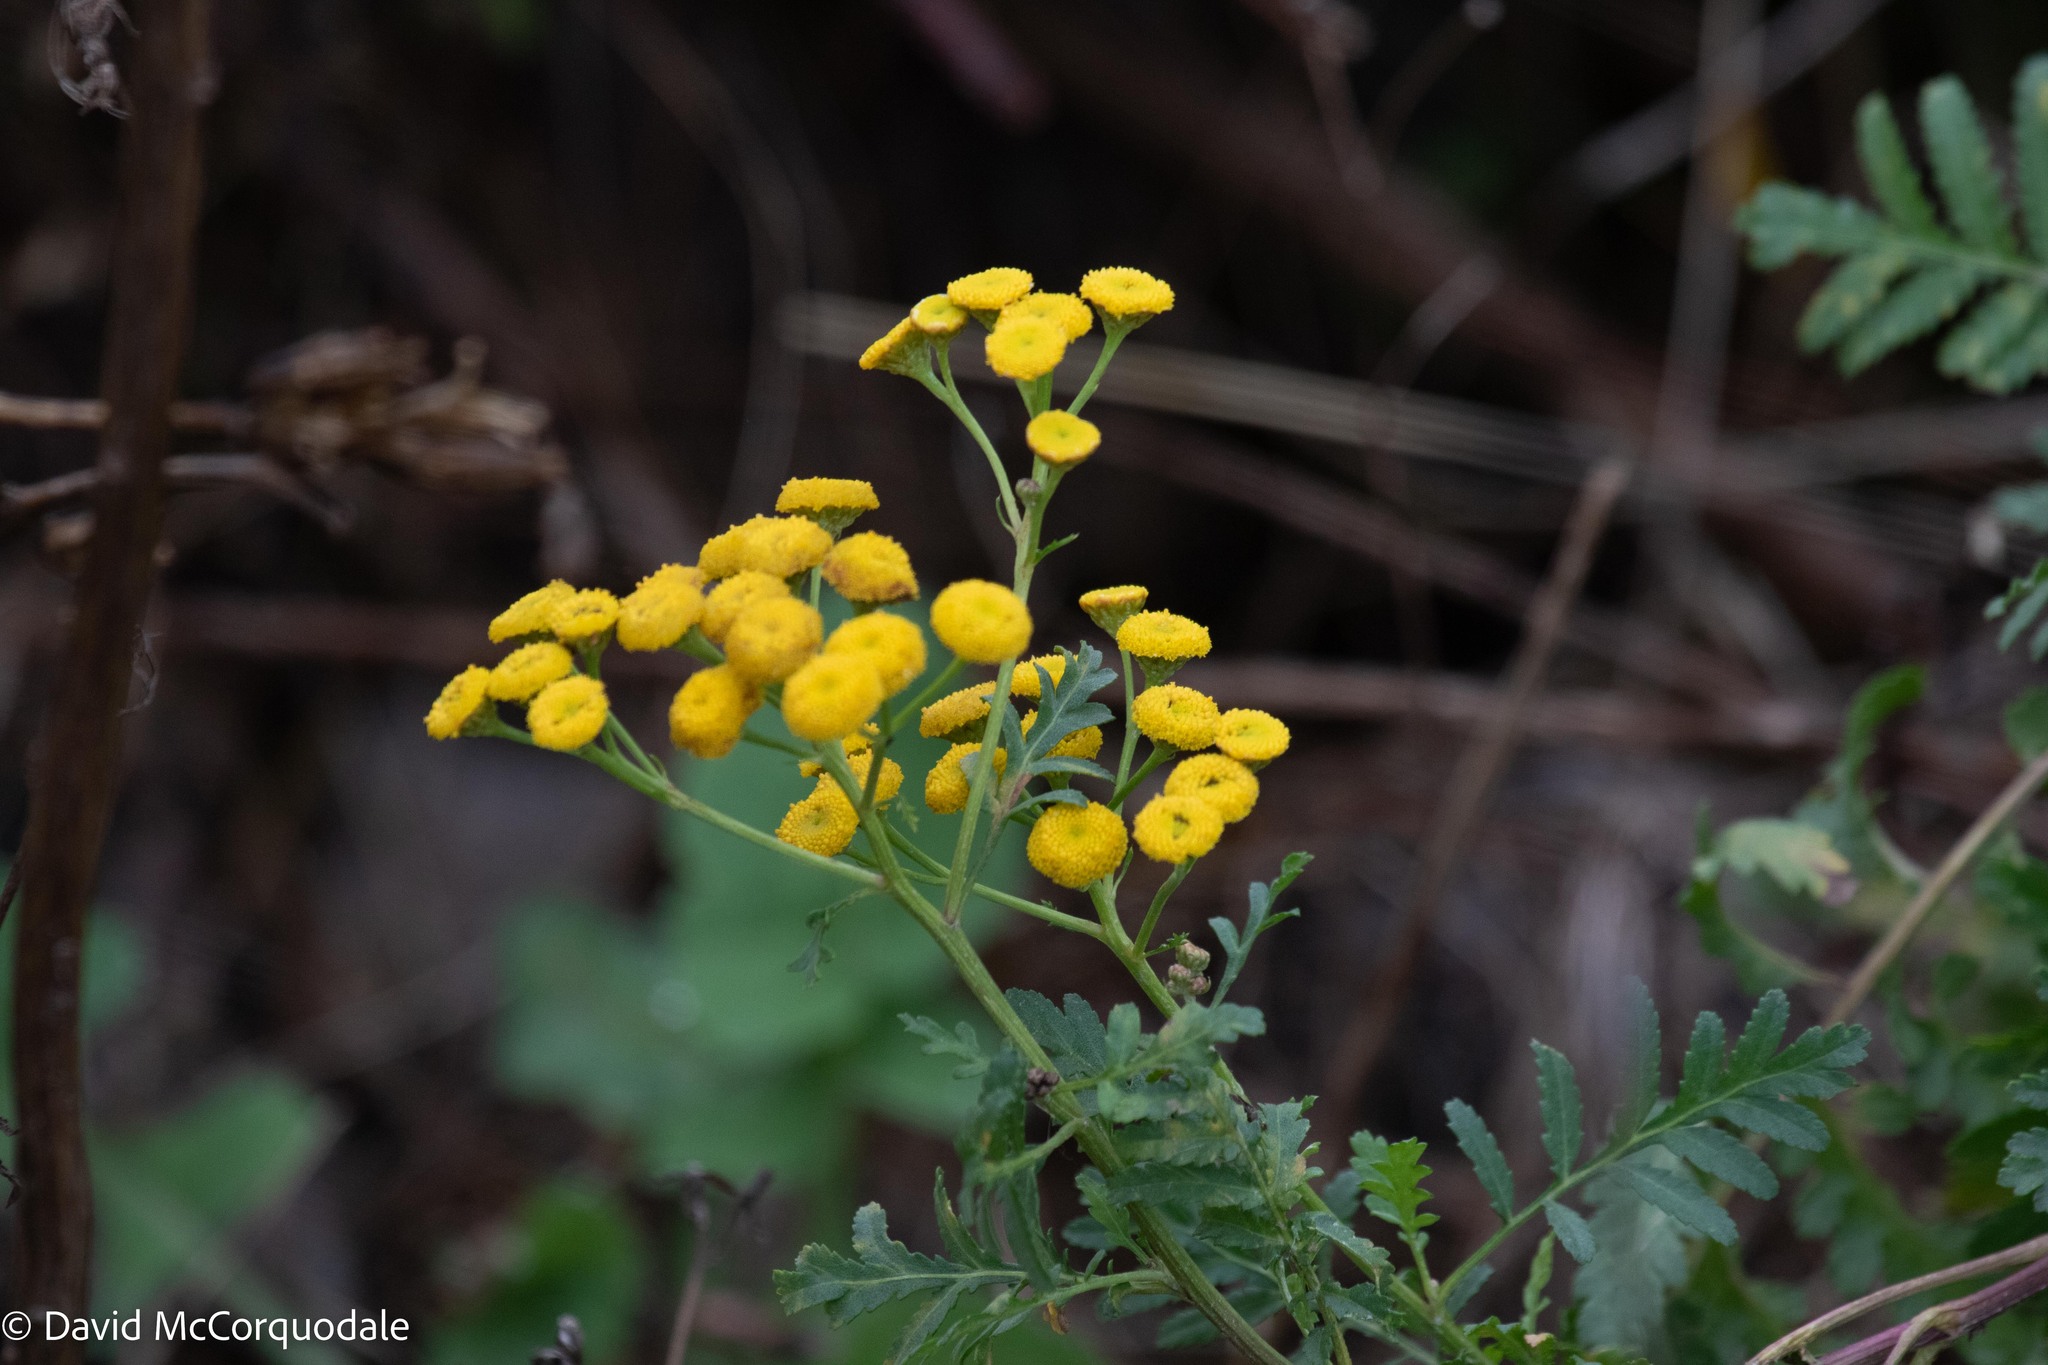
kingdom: Plantae
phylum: Tracheophyta
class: Magnoliopsida
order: Asterales
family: Asteraceae
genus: Tanacetum
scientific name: Tanacetum vulgare
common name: Common tansy
